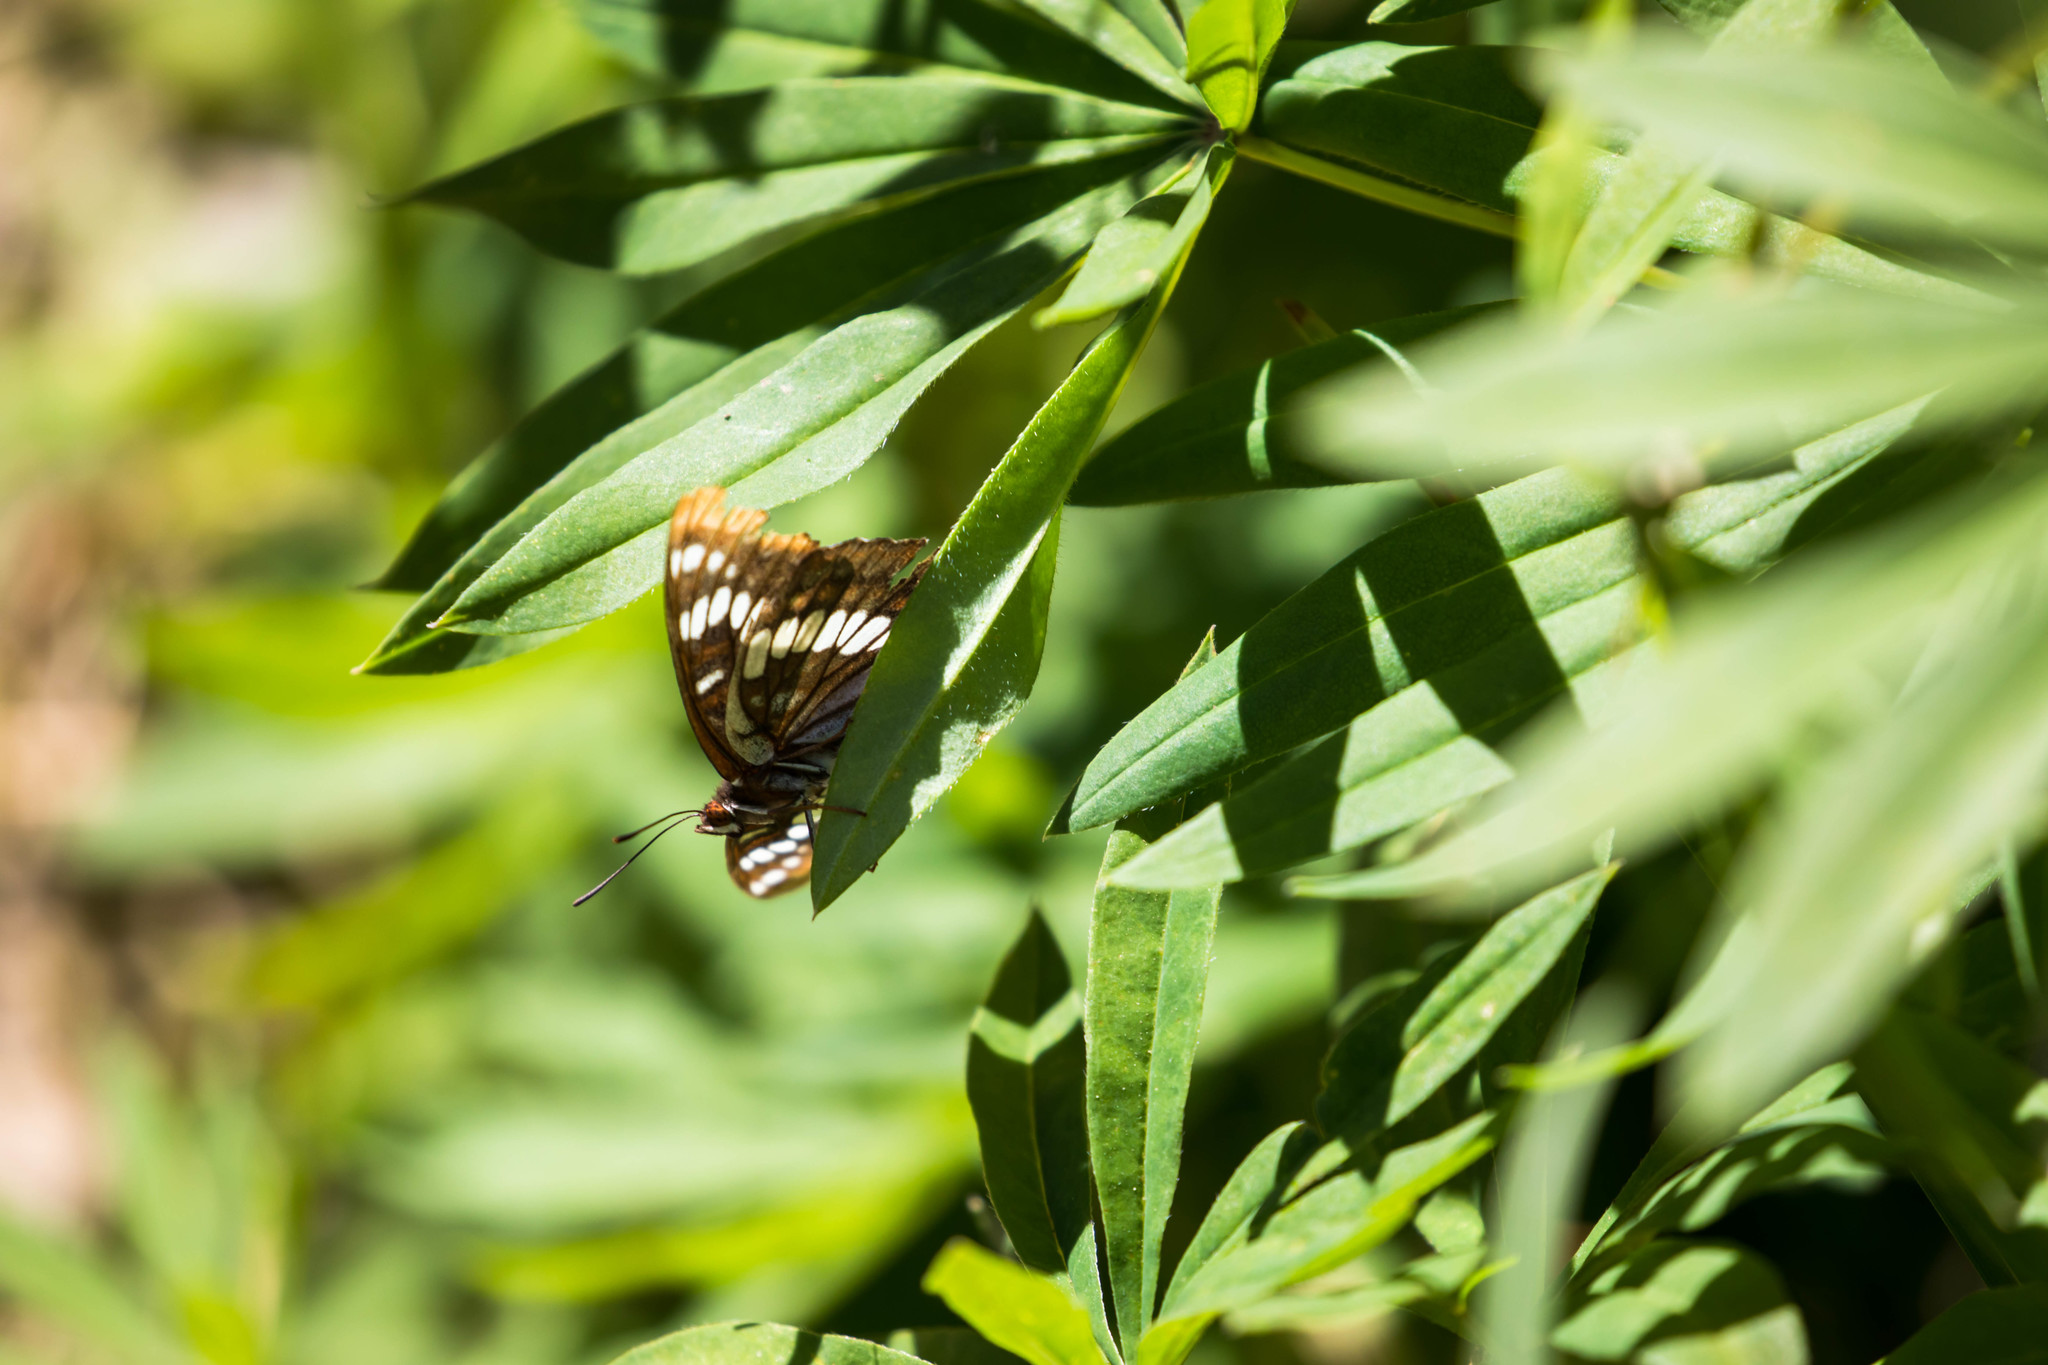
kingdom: Animalia
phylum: Arthropoda
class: Insecta
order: Lepidoptera
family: Nymphalidae
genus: Limenitis
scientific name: Limenitis lorquini
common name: Lorquin's admiral
